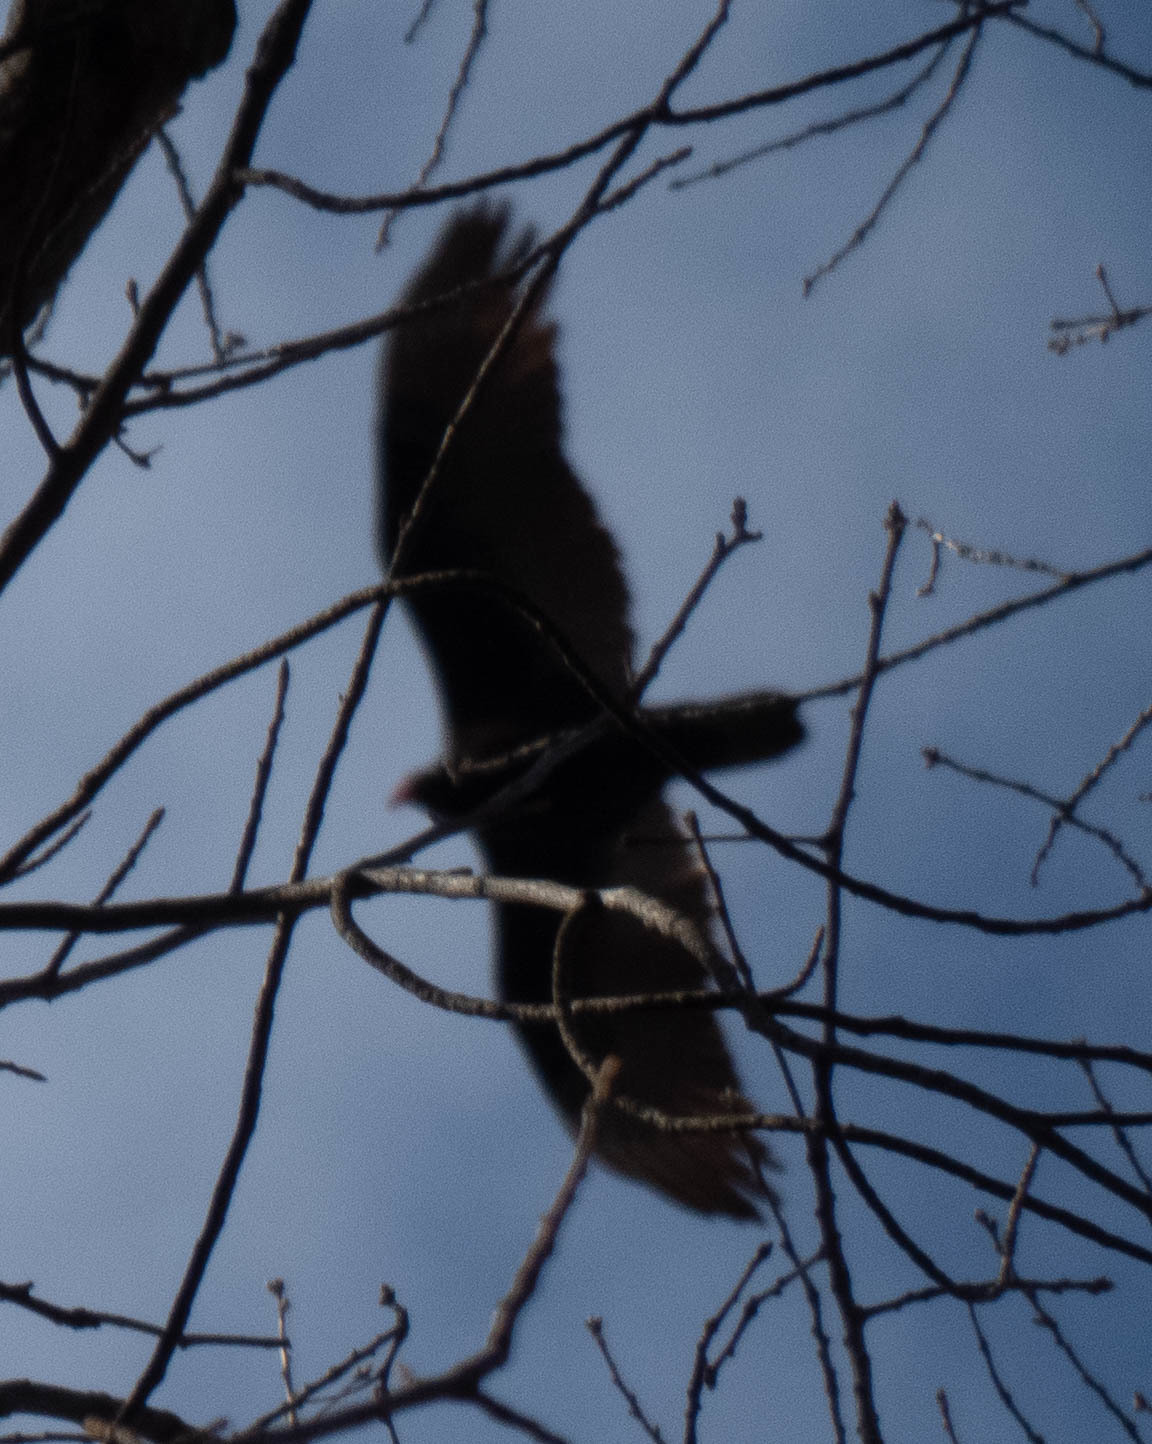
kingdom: Animalia
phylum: Chordata
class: Aves
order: Accipitriformes
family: Cathartidae
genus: Cathartes
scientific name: Cathartes aura
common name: Turkey vulture
